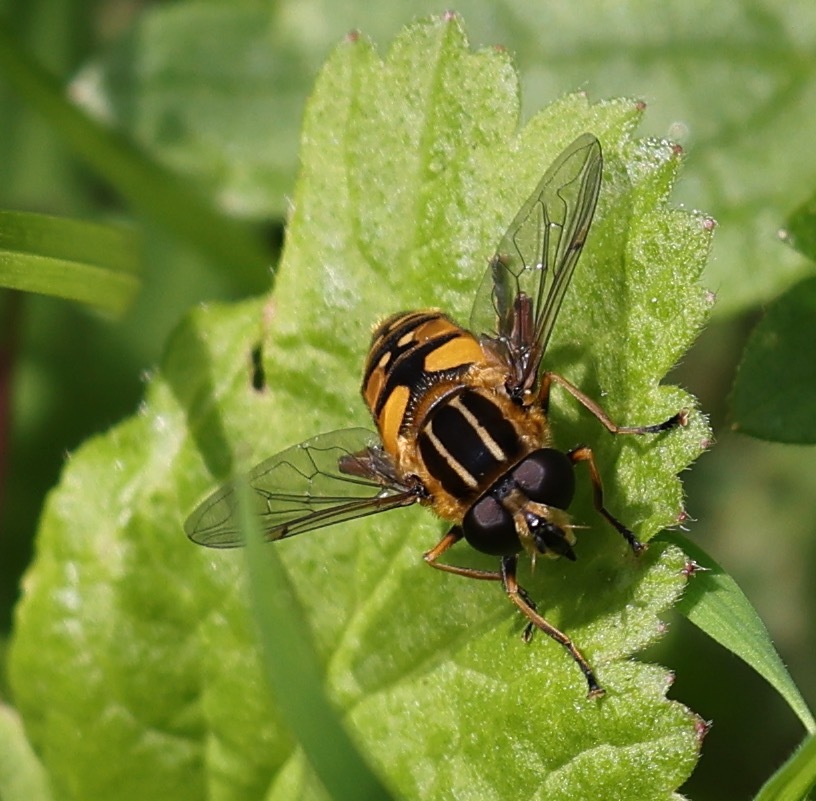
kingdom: Animalia
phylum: Arthropoda
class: Insecta
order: Diptera
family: Syrphidae
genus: Helophilus
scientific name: Helophilus pendulus
